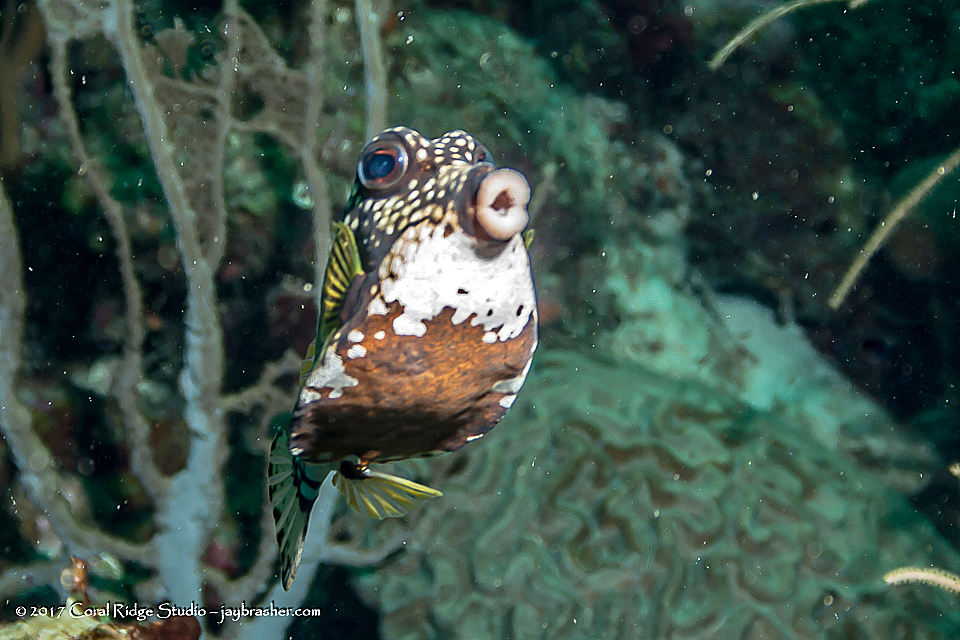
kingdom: Animalia
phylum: Chordata
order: Tetraodontiformes
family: Ostraciidae
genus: Lactophrys
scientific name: Lactophrys triqueter
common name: Smooth trunkfish
